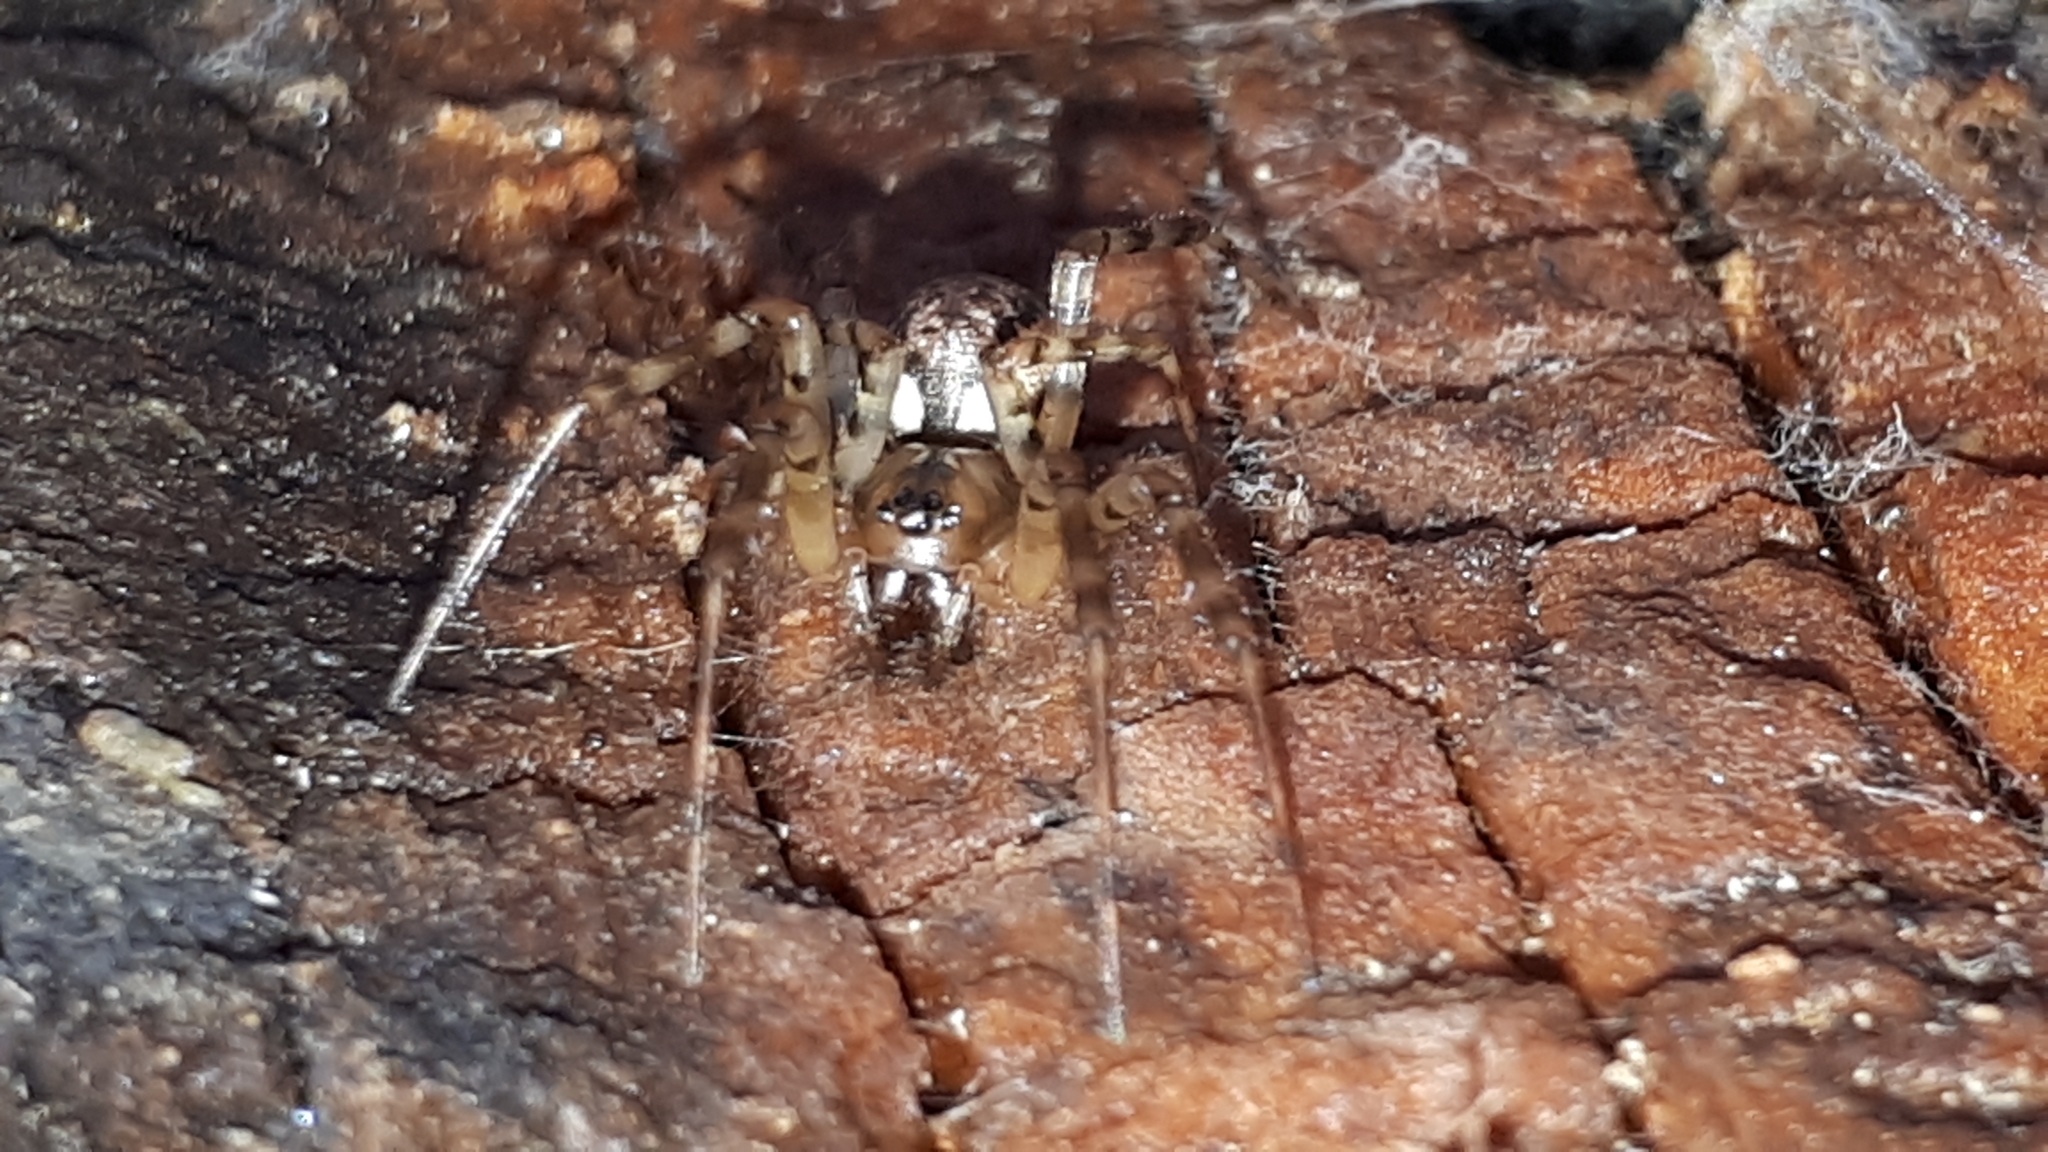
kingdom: Animalia
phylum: Arthropoda
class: Arachnida
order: Araneae
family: Linyphiidae
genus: Neriene
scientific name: Neriene montana
